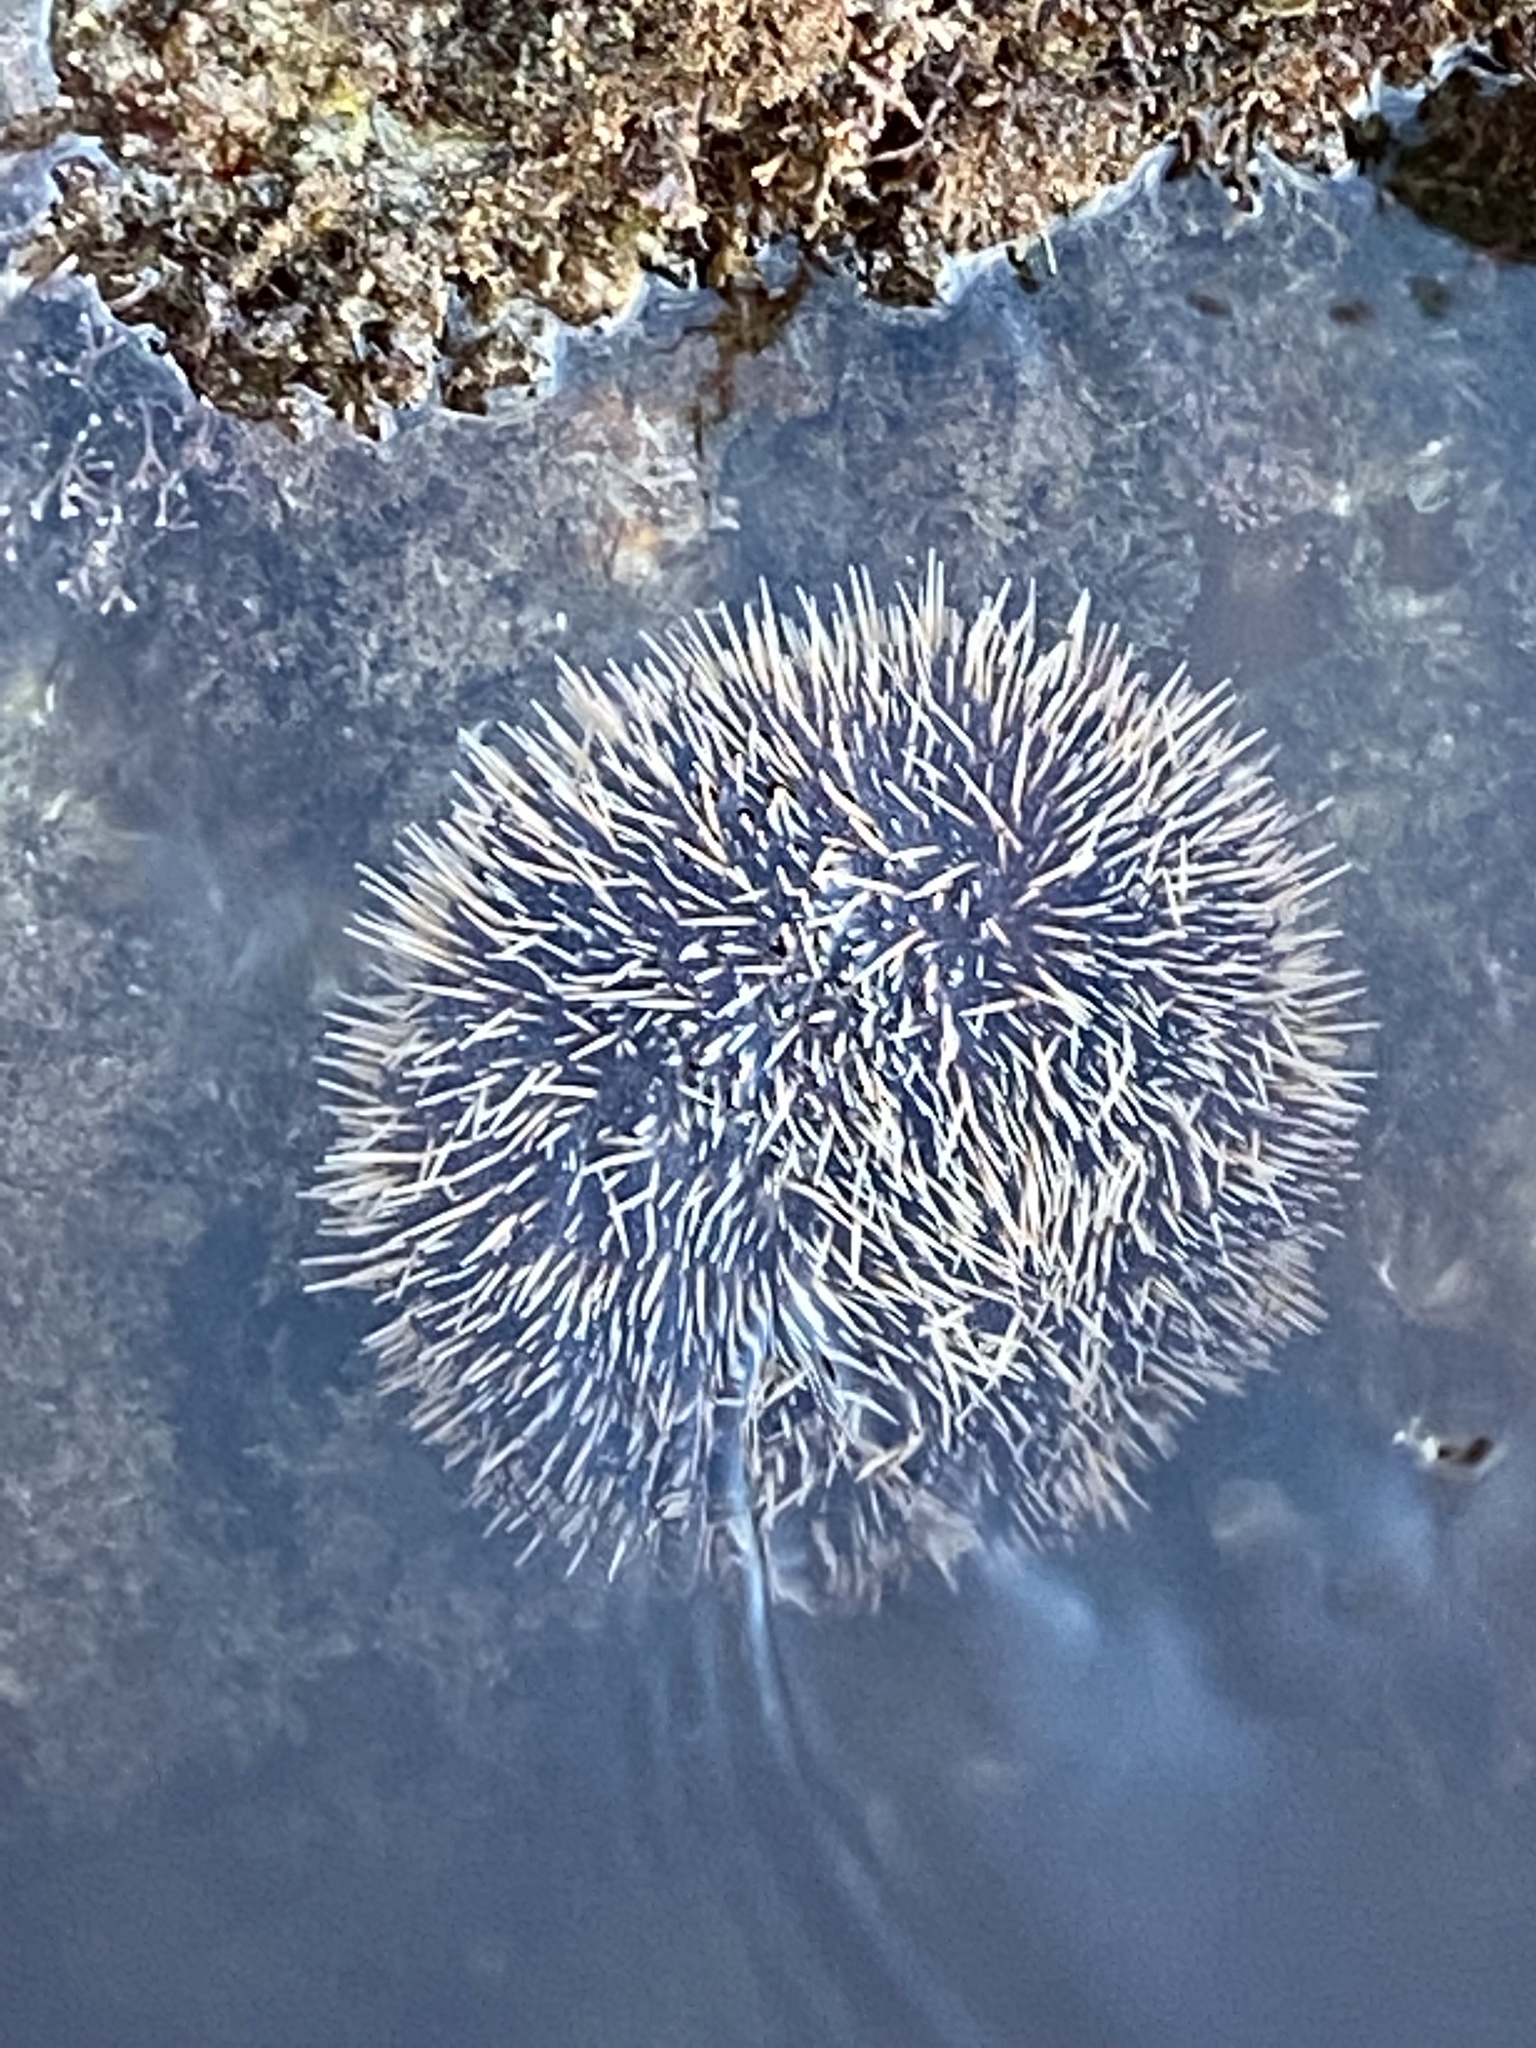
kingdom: Animalia
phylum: Echinodermata
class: Echinoidea
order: Camarodonta
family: Toxopneustidae
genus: Tripneustes
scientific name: Tripneustes depressus
